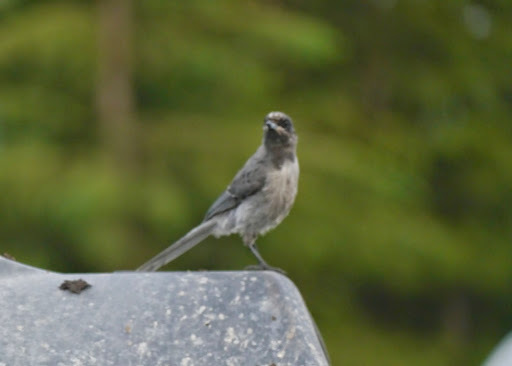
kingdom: Animalia
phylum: Chordata
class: Aves
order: Passeriformes
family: Corvidae
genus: Perisoreus
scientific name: Perisoreus canadensis
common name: Gray jay
